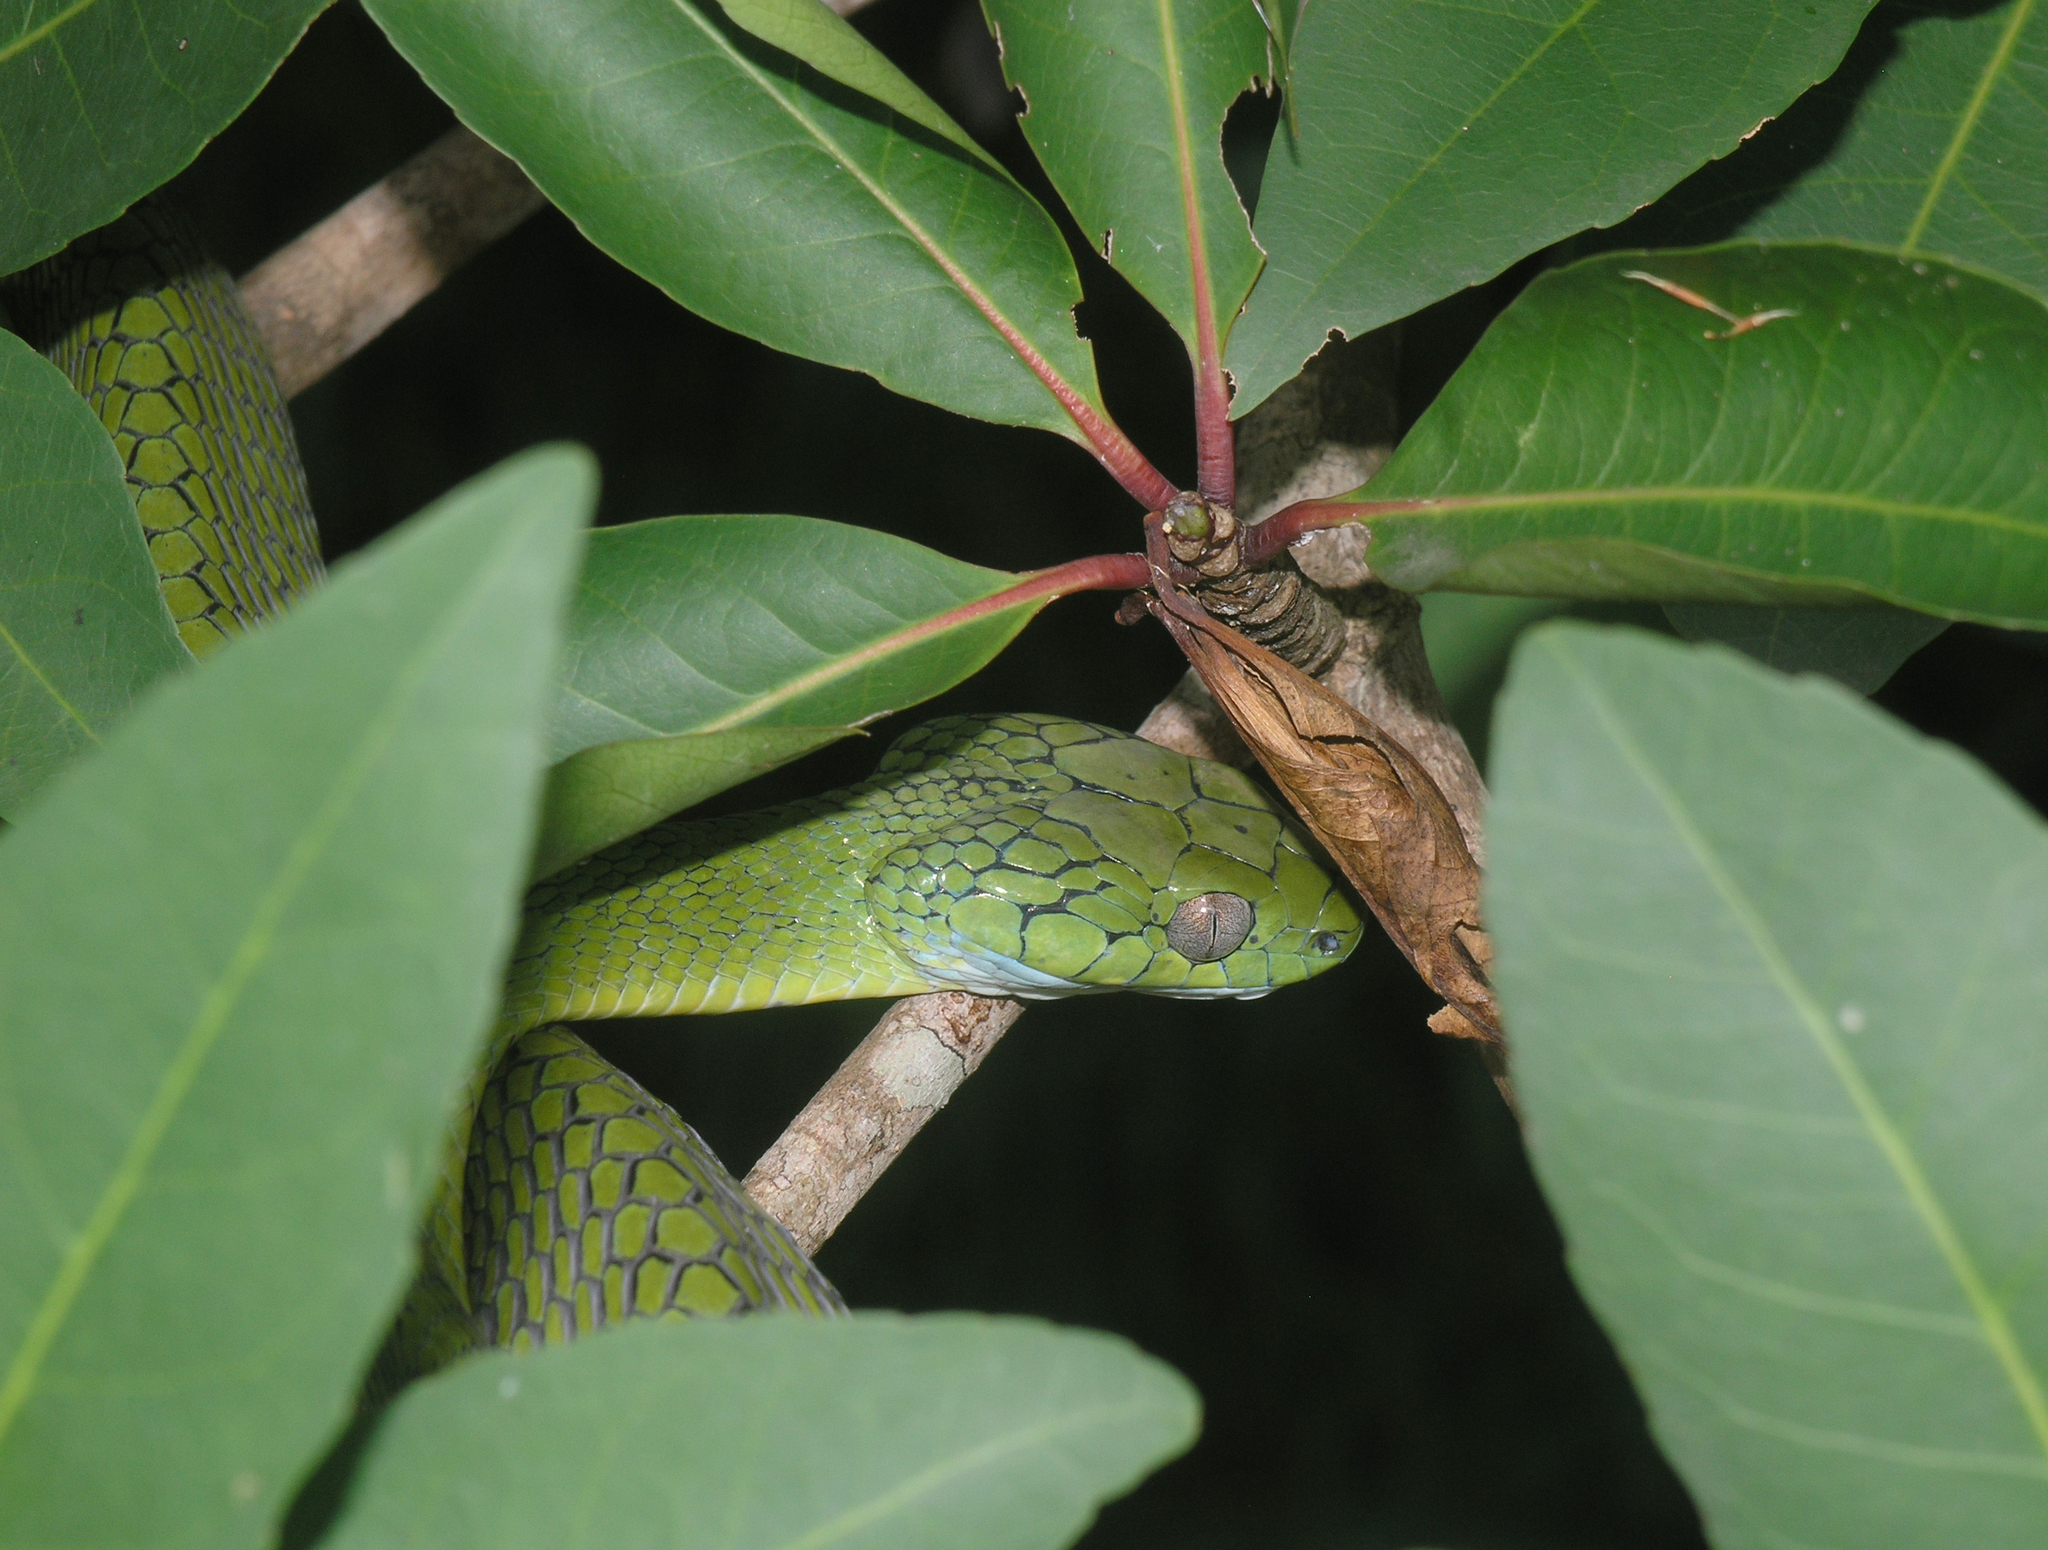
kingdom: Animalia
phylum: Chordata
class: Squamata
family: Colubridae
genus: Boiga
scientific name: Boiga cyanea
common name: Green cat snake
